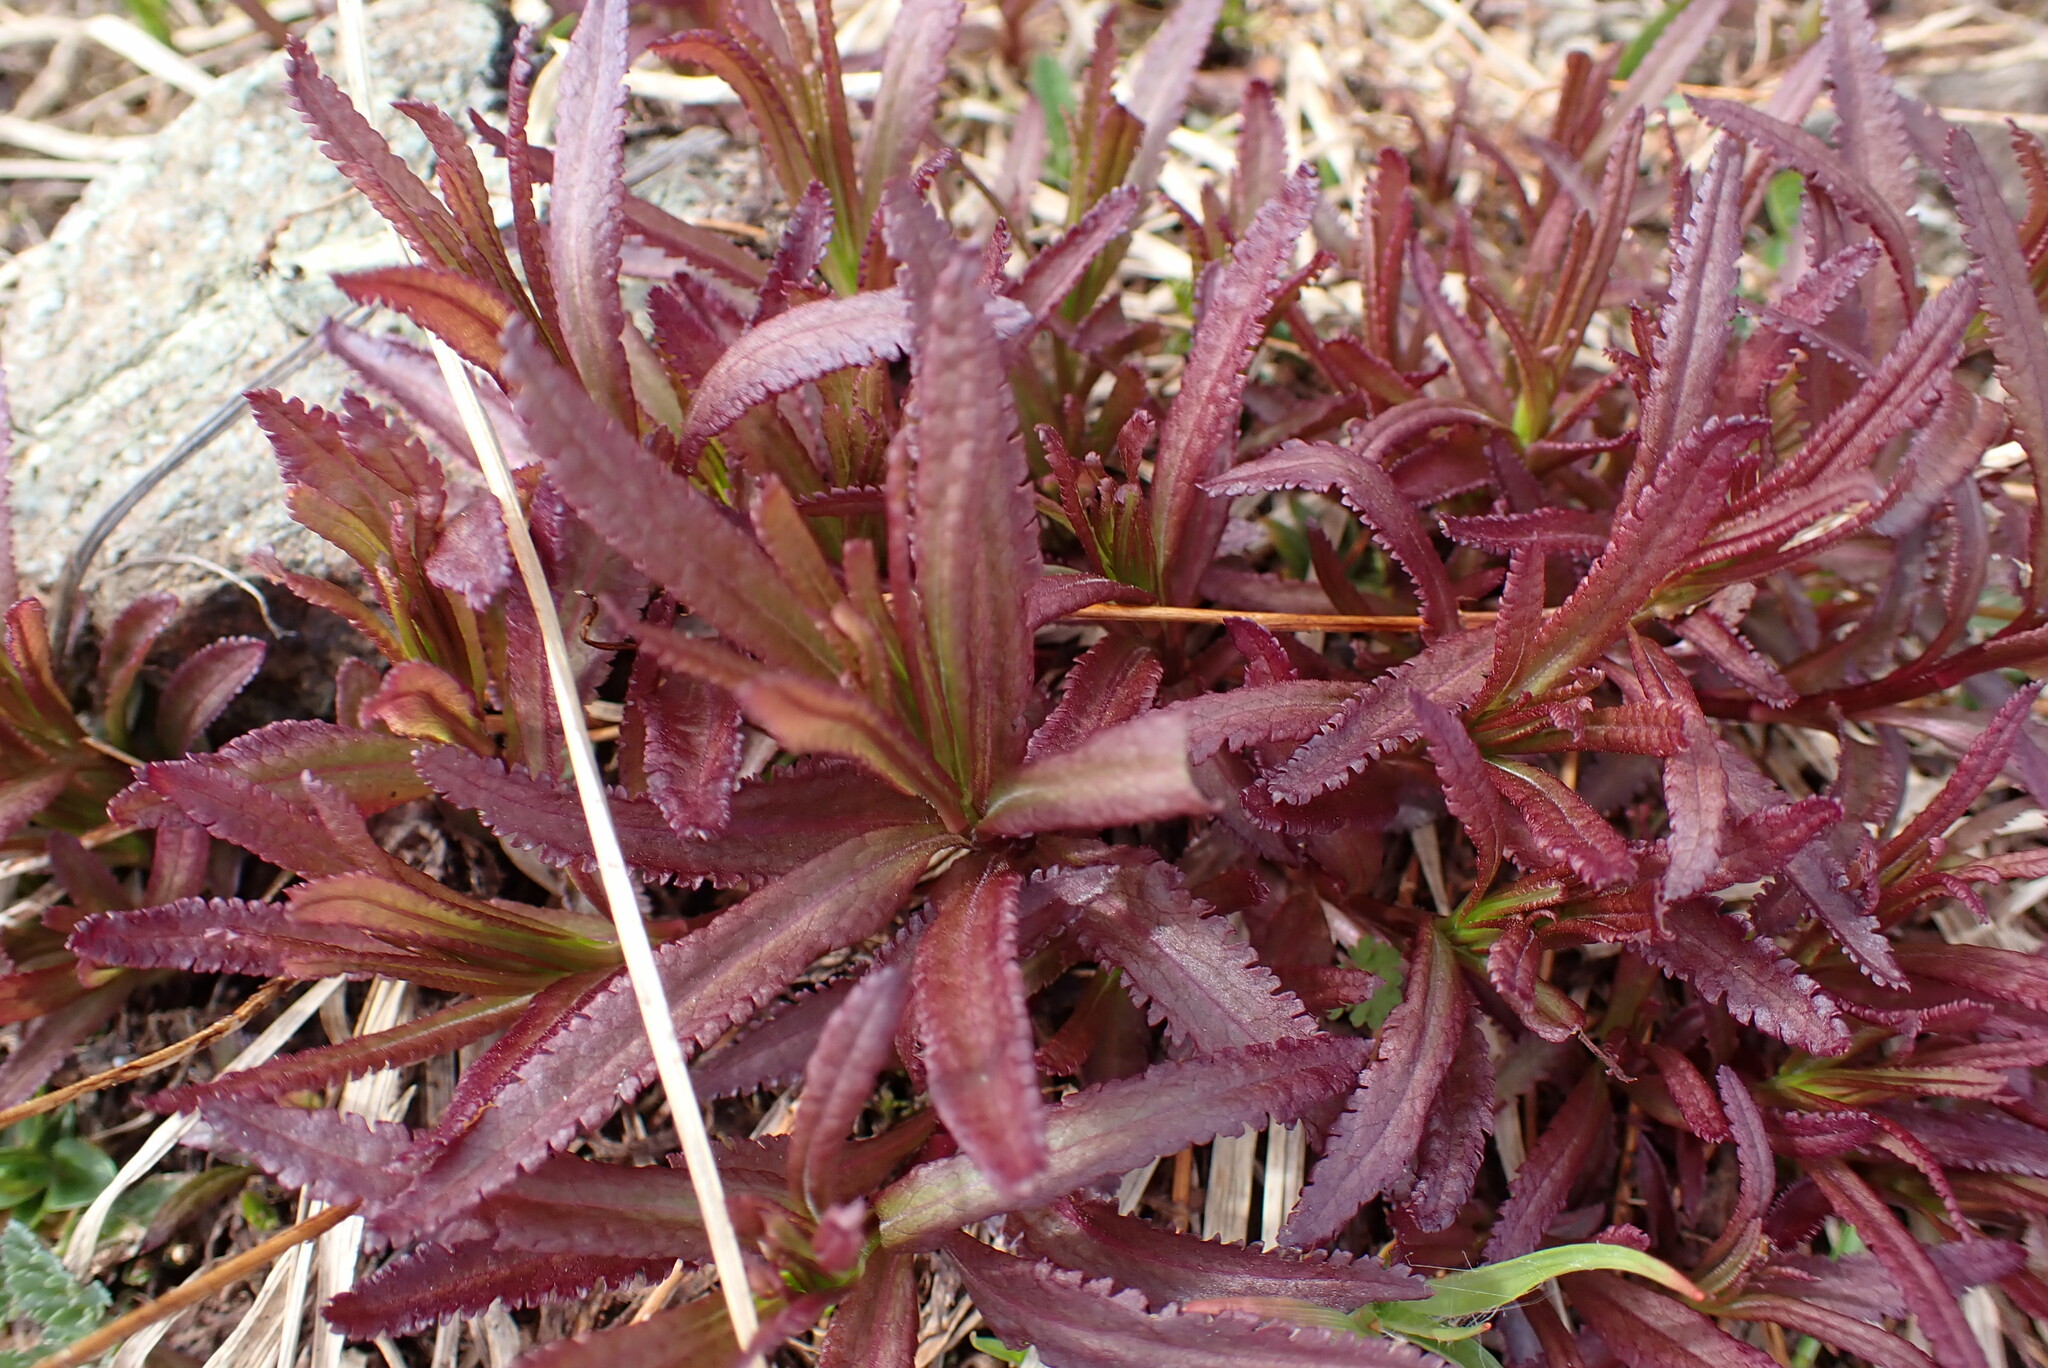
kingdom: Plantae
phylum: Tracheophyta
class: Magnoliopsida
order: Lamiales
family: Orobanchaceae
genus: Pedicularis
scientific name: Pedicularis racemosa
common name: Leafy lousewort
